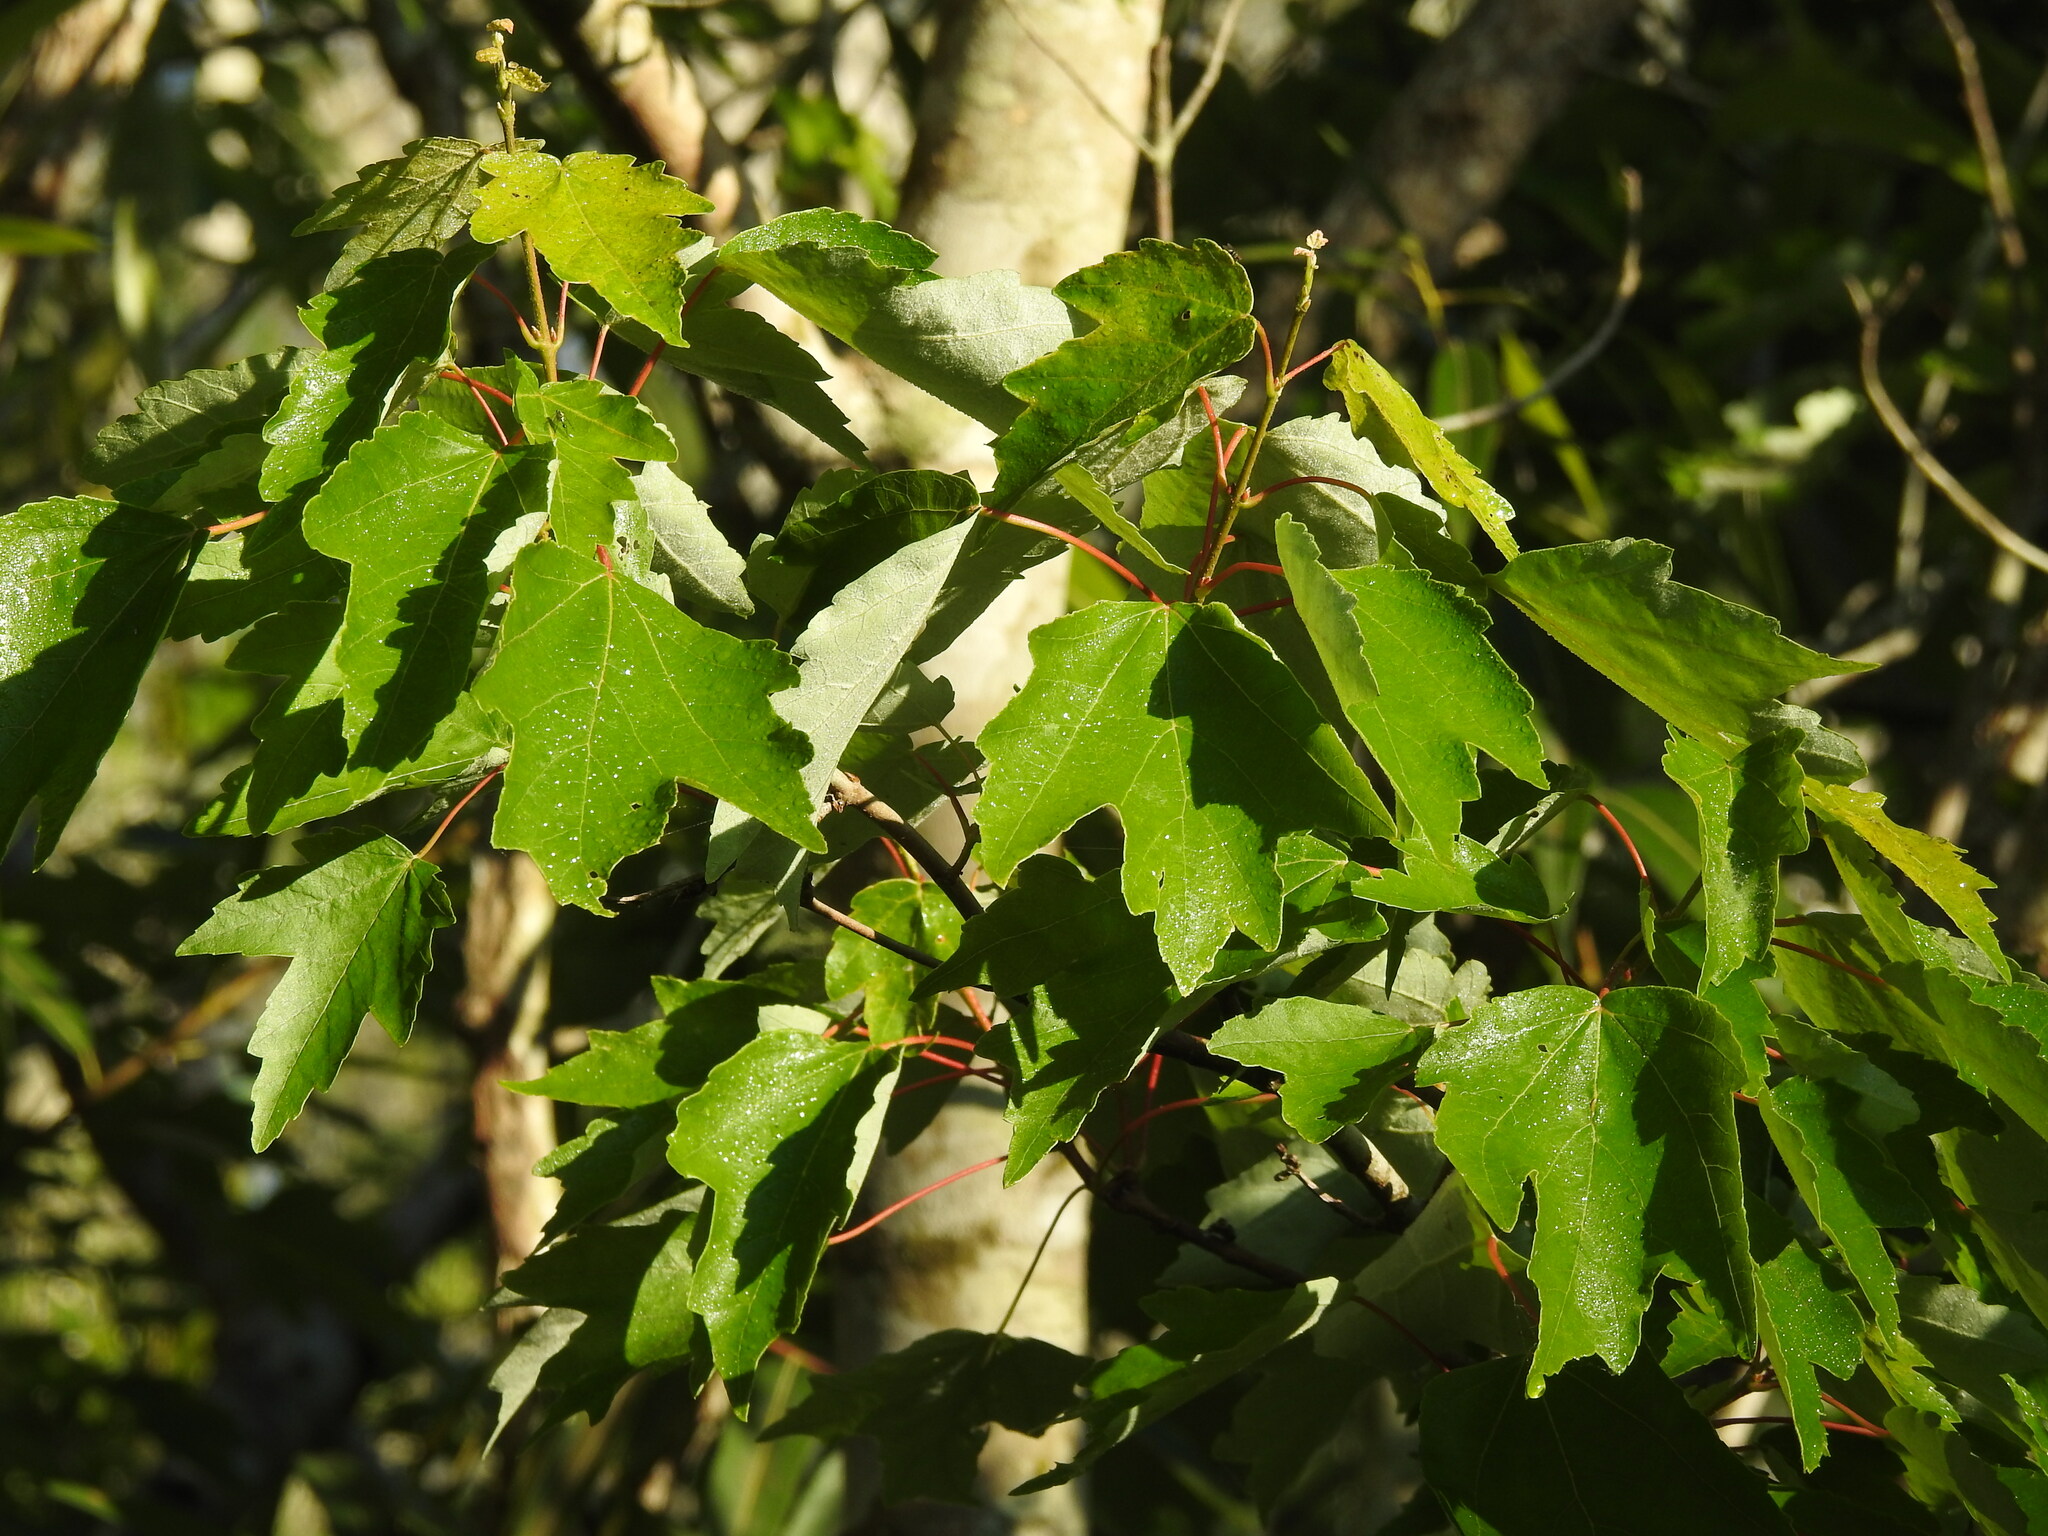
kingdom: Plantae
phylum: Tracheophyta
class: Magnoliopsida
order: Sapindales
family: Sapindaceae
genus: Acer
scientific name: Acer rubrum
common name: Red maple
